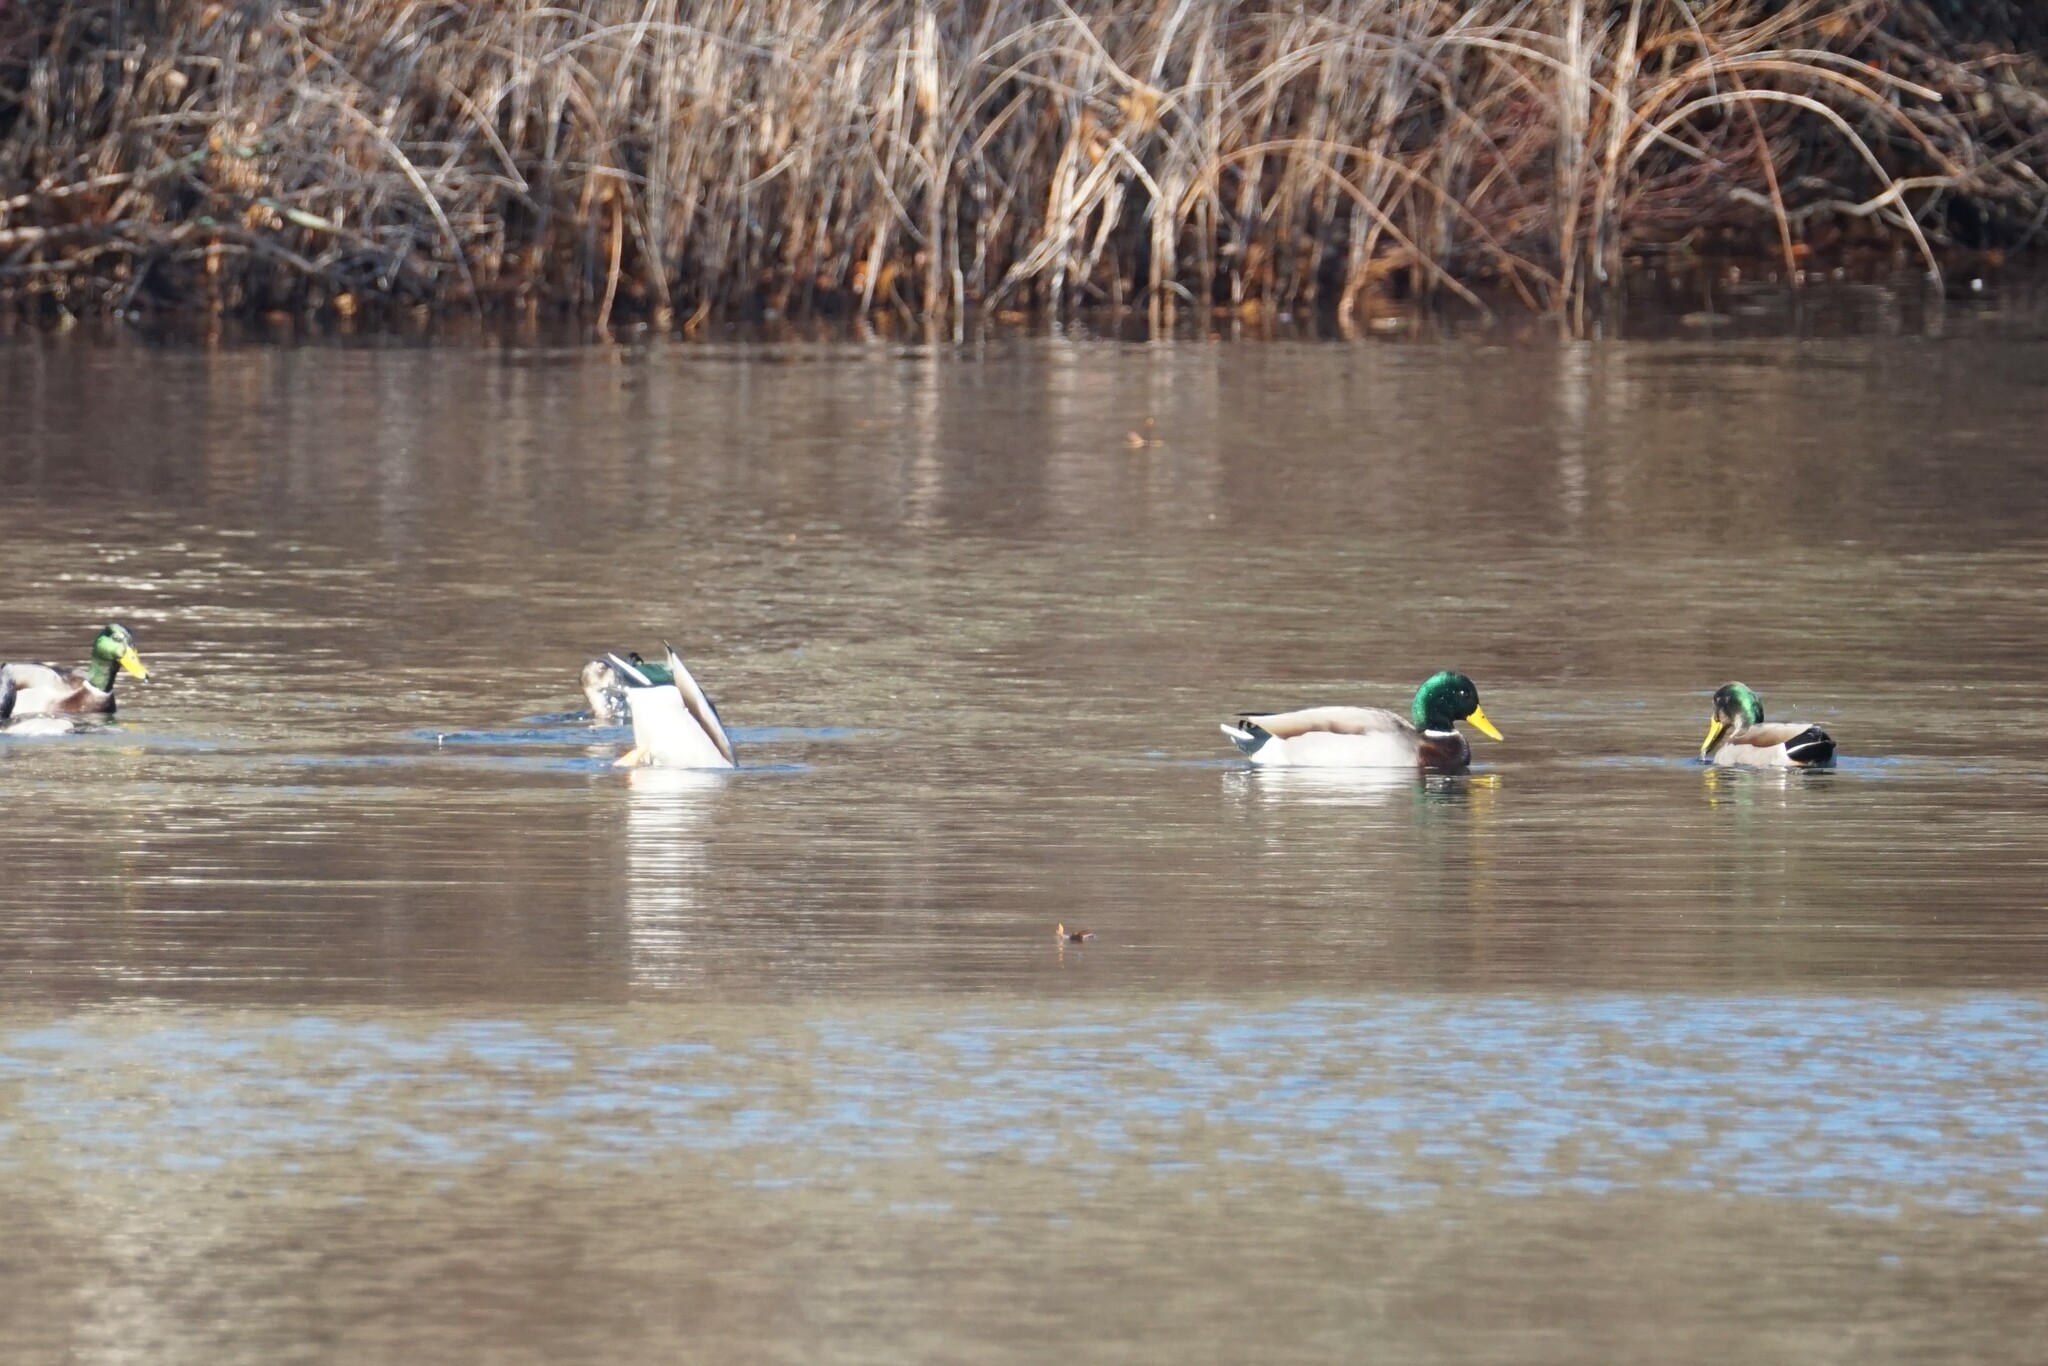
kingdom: Animalia
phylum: Chordata
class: Aves
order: Anseriformes
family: Anatidae
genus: Anas
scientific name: Anas platyrhynchos
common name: Mallard
